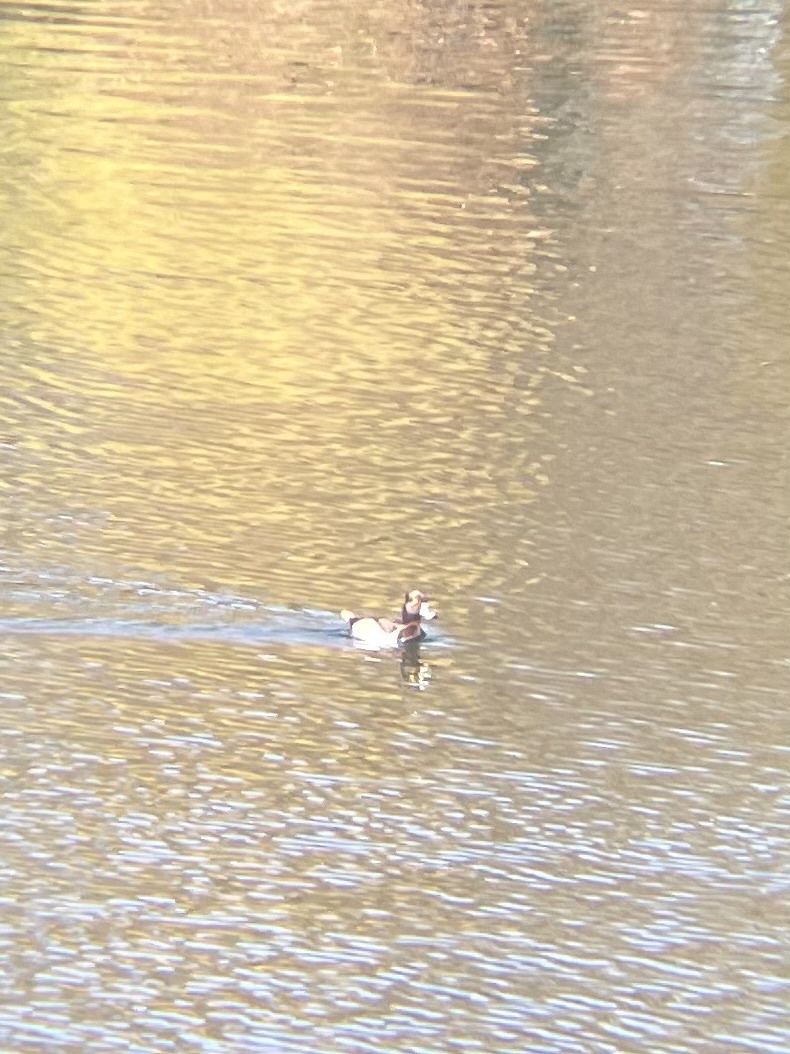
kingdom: Animalia
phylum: Chordata
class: Aves
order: Anseriformes
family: Anatidae
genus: Aythya
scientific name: Aythya collaris
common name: Ring-necked duck
